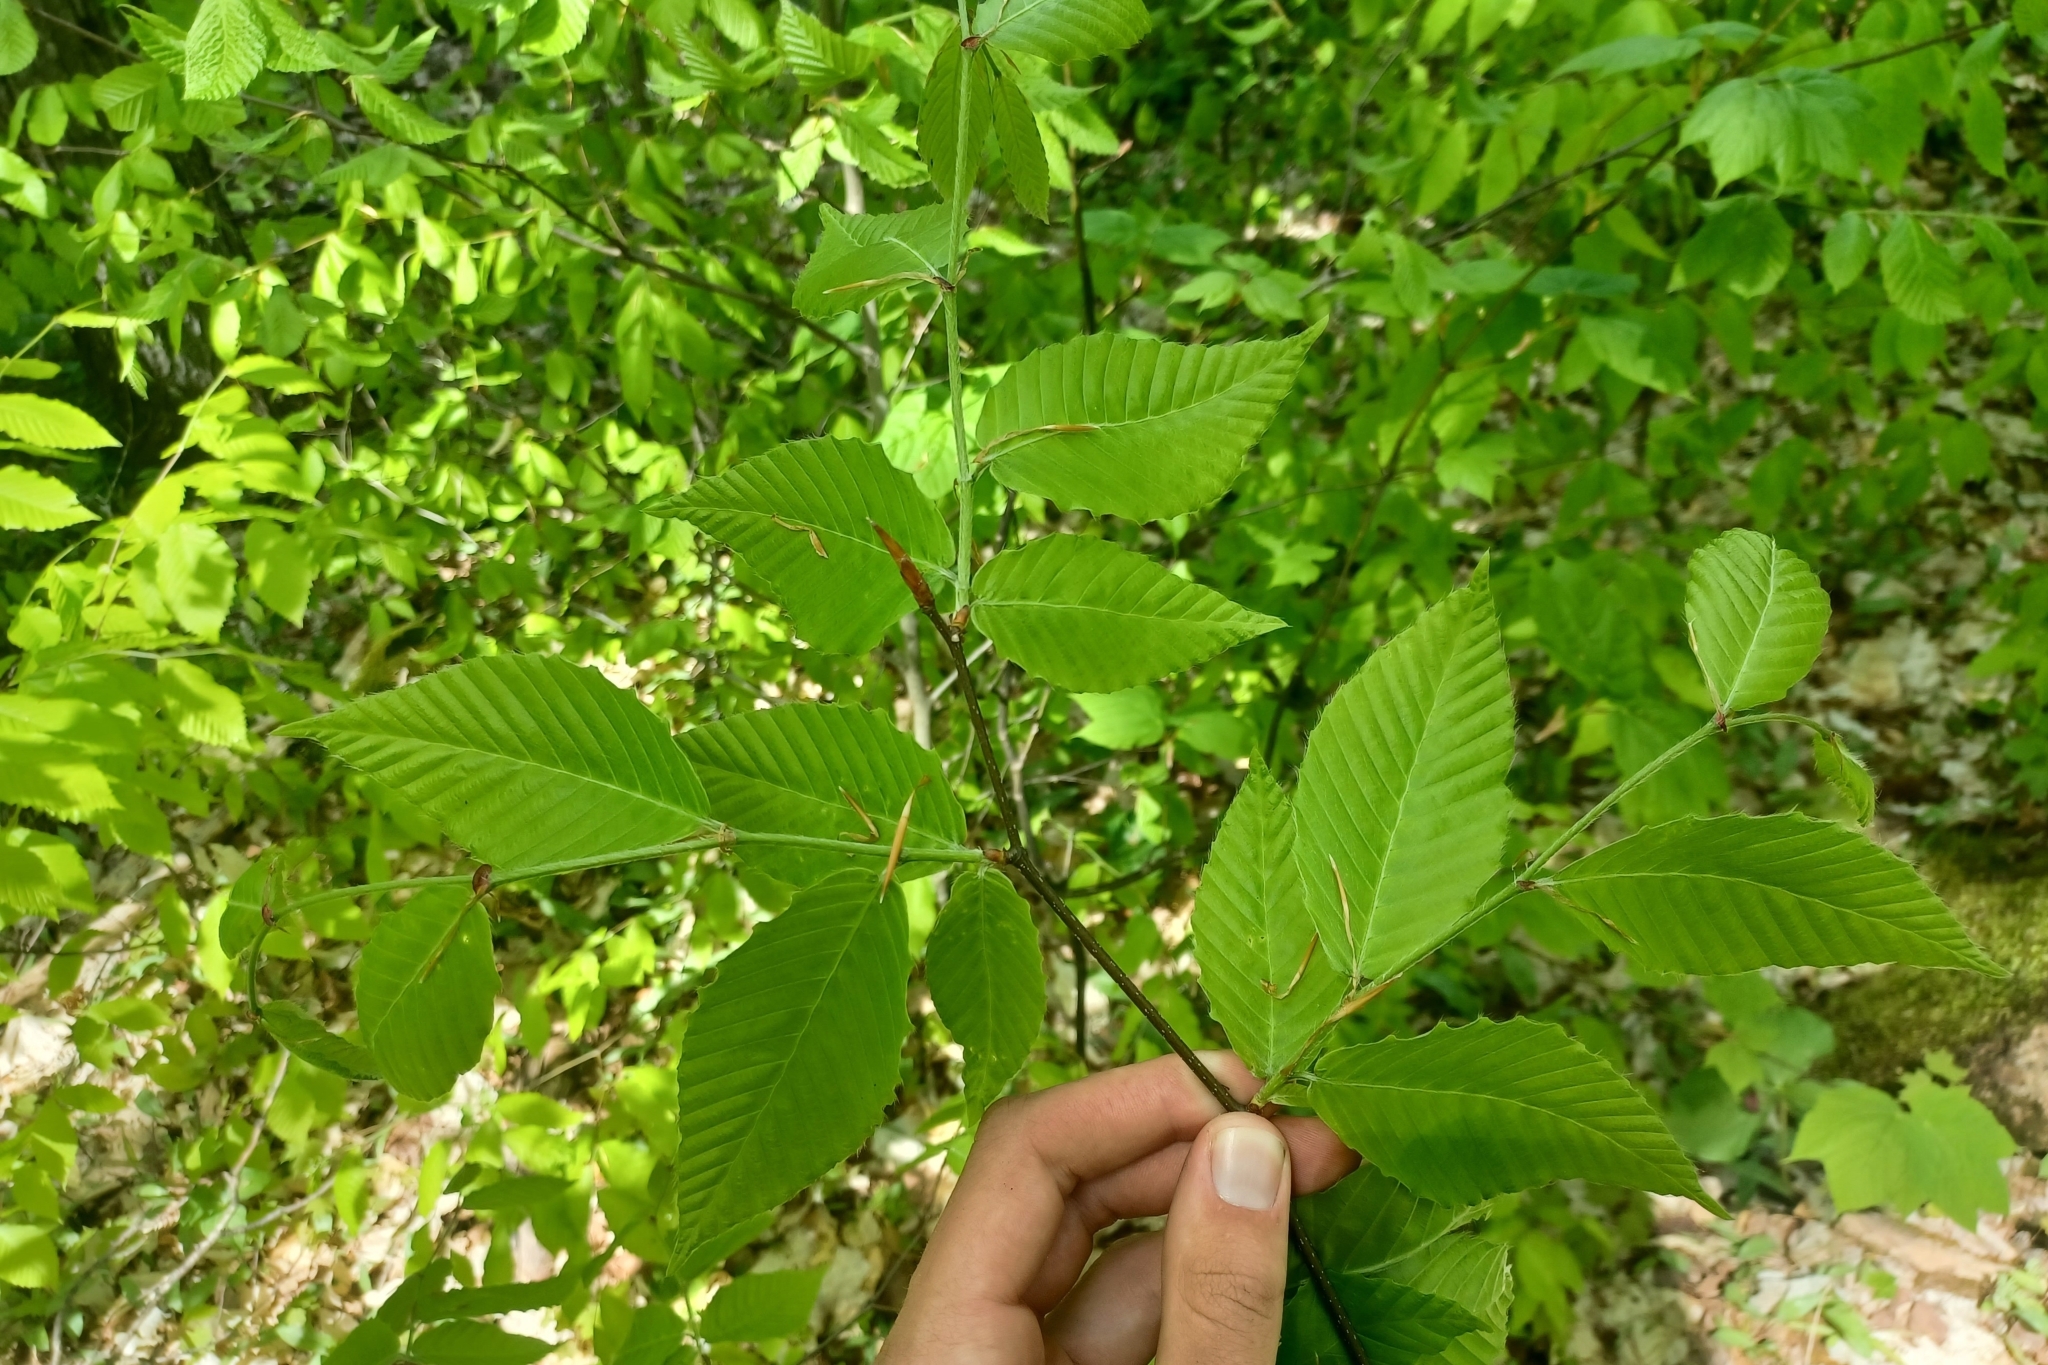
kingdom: Plantae
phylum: Tracheophyta
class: Magnoliopsida
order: Fagales
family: Fagaceae
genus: Fagus
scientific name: Fagus grandifolia
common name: American beech
